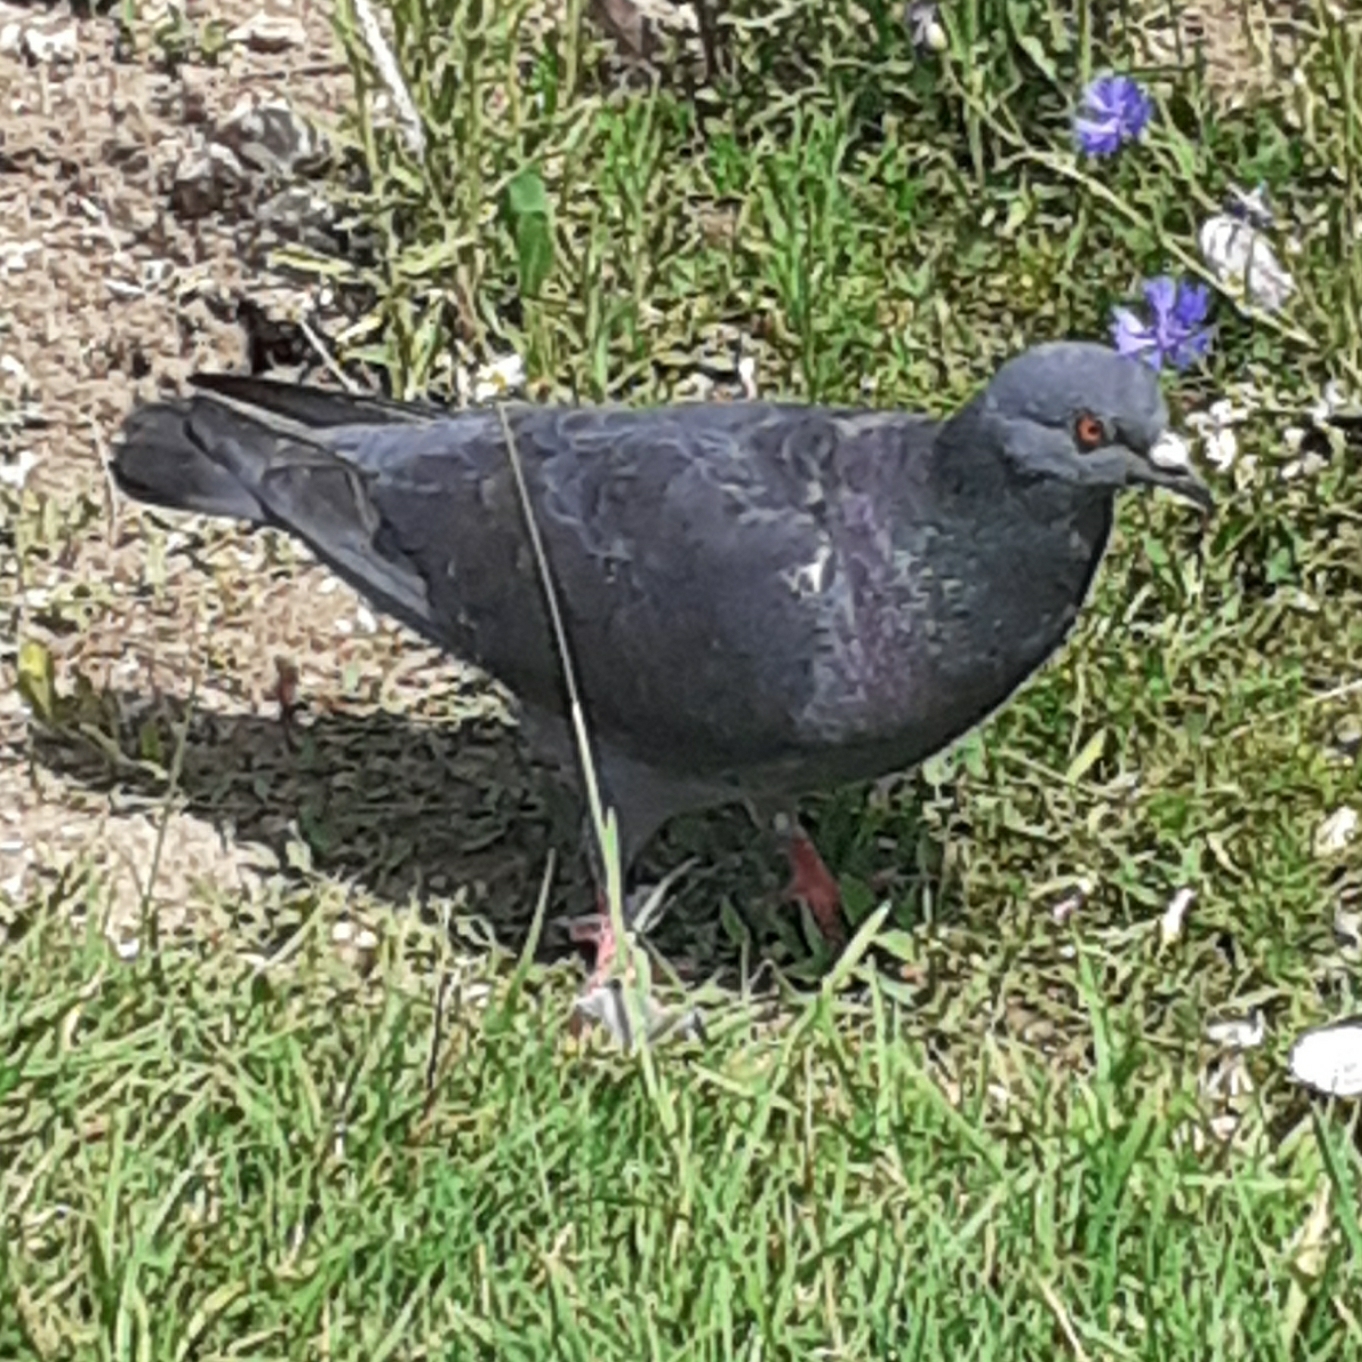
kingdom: Animalia
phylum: Chordata
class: Aves
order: Columbiformes
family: Columbidae
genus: Columba
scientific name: Columba livia
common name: Rock pigeon
